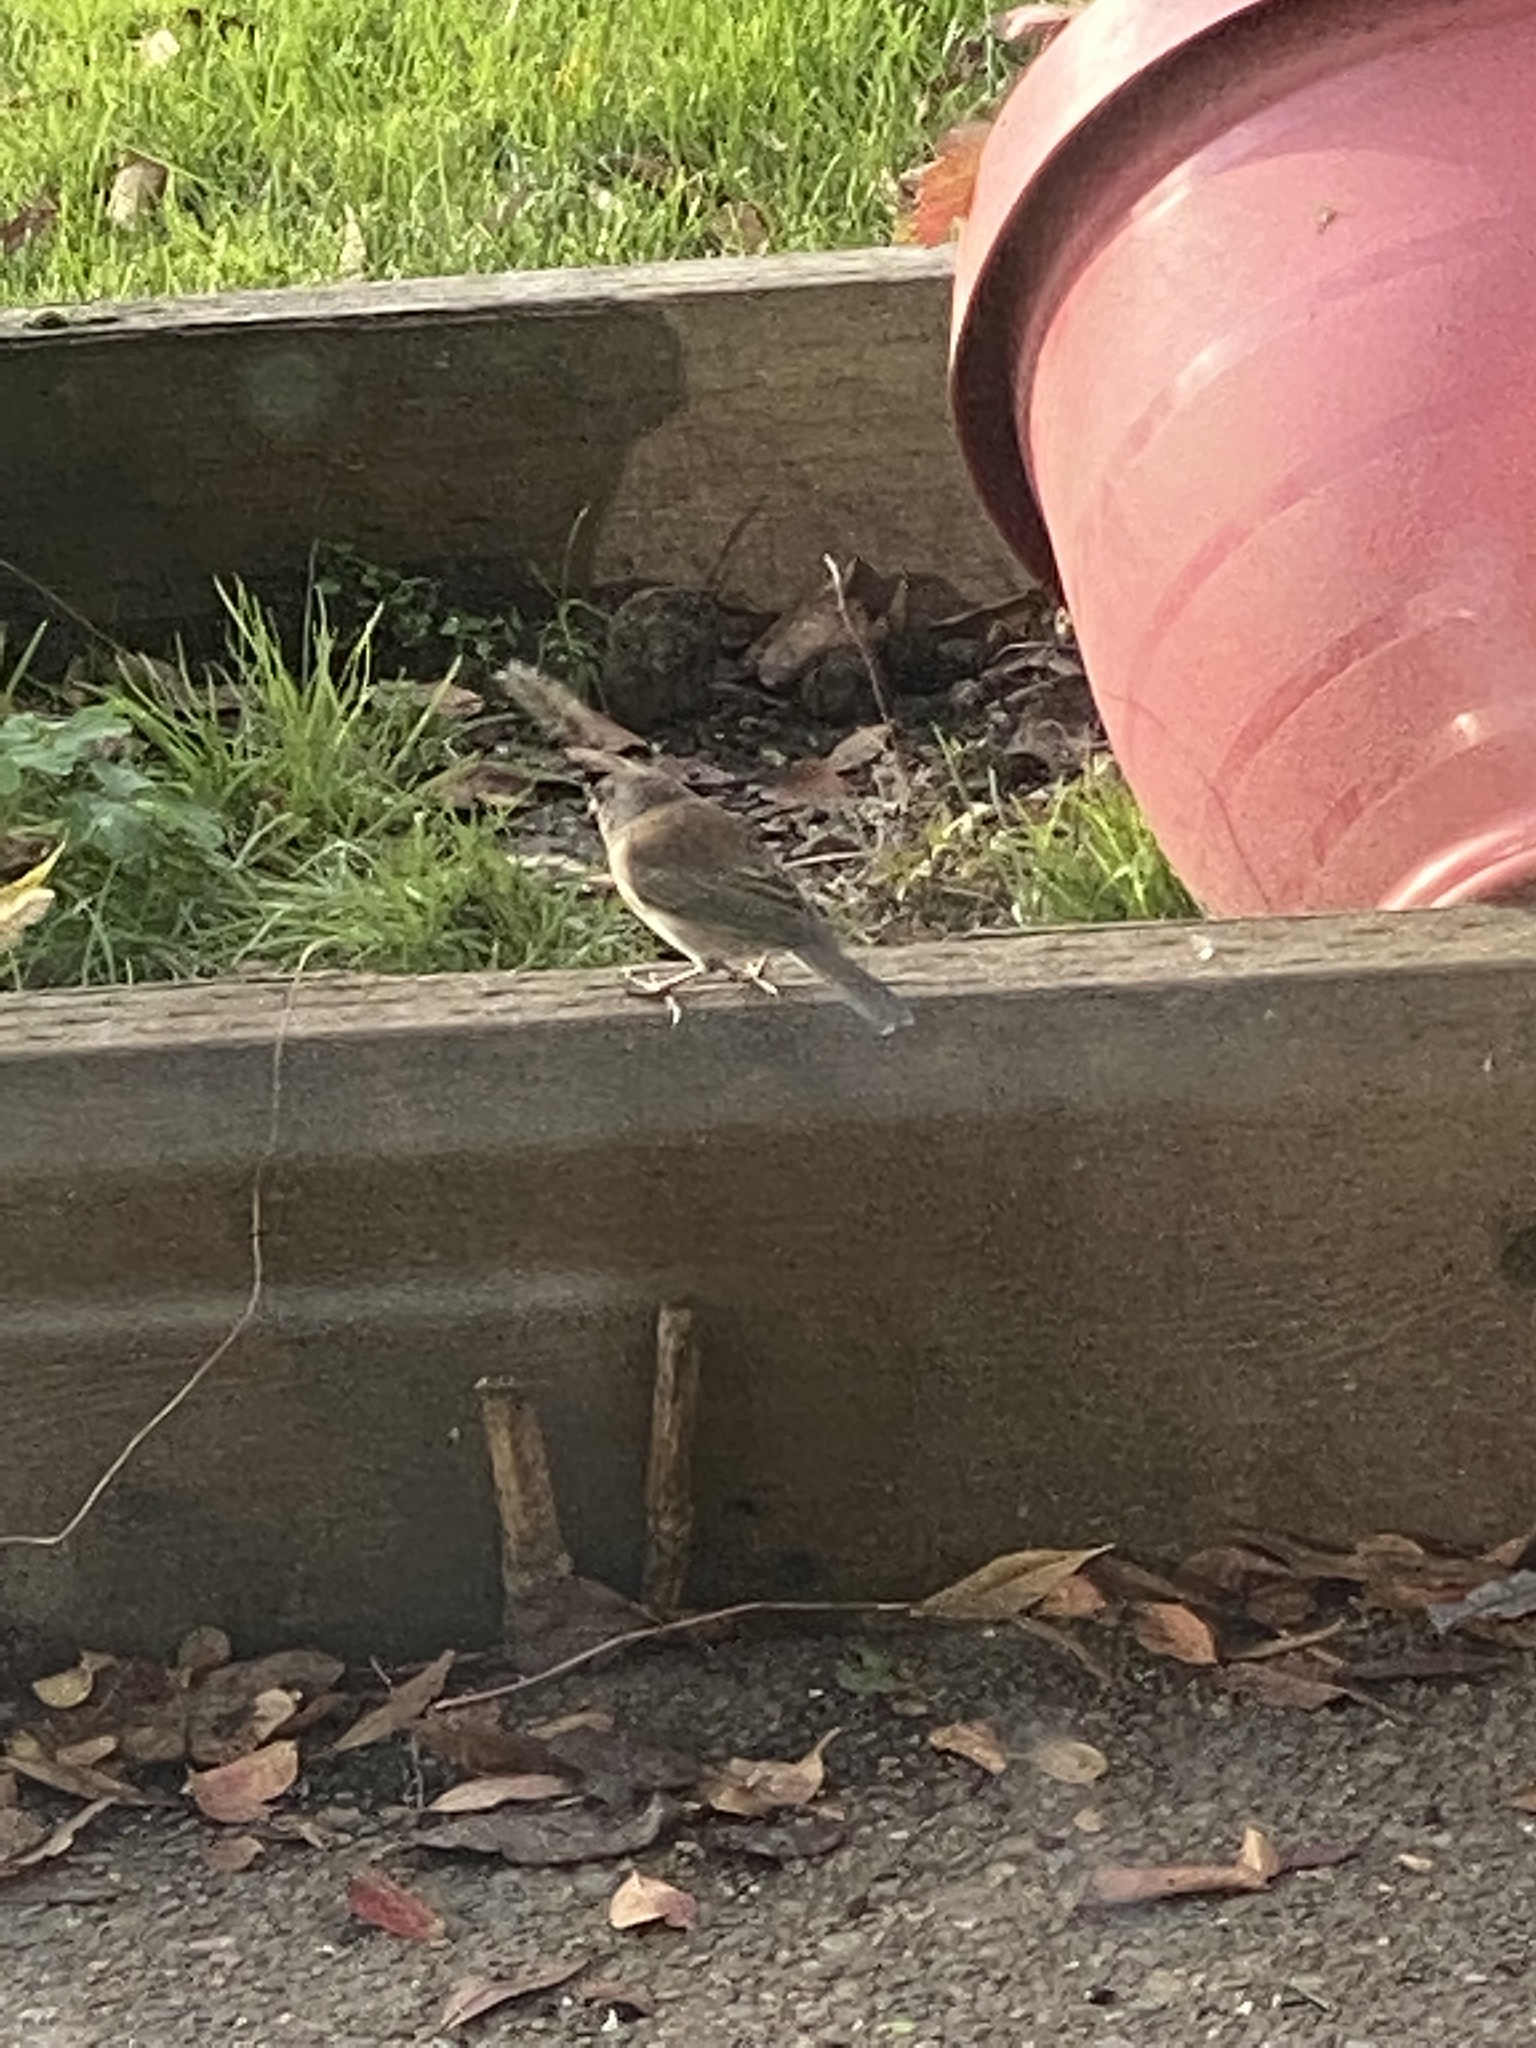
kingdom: Animalia
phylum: Chordata
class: Aves
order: Passeriformes
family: Passerellidae
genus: Junco
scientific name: Junco hyemalis
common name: Dark-eyed junco
